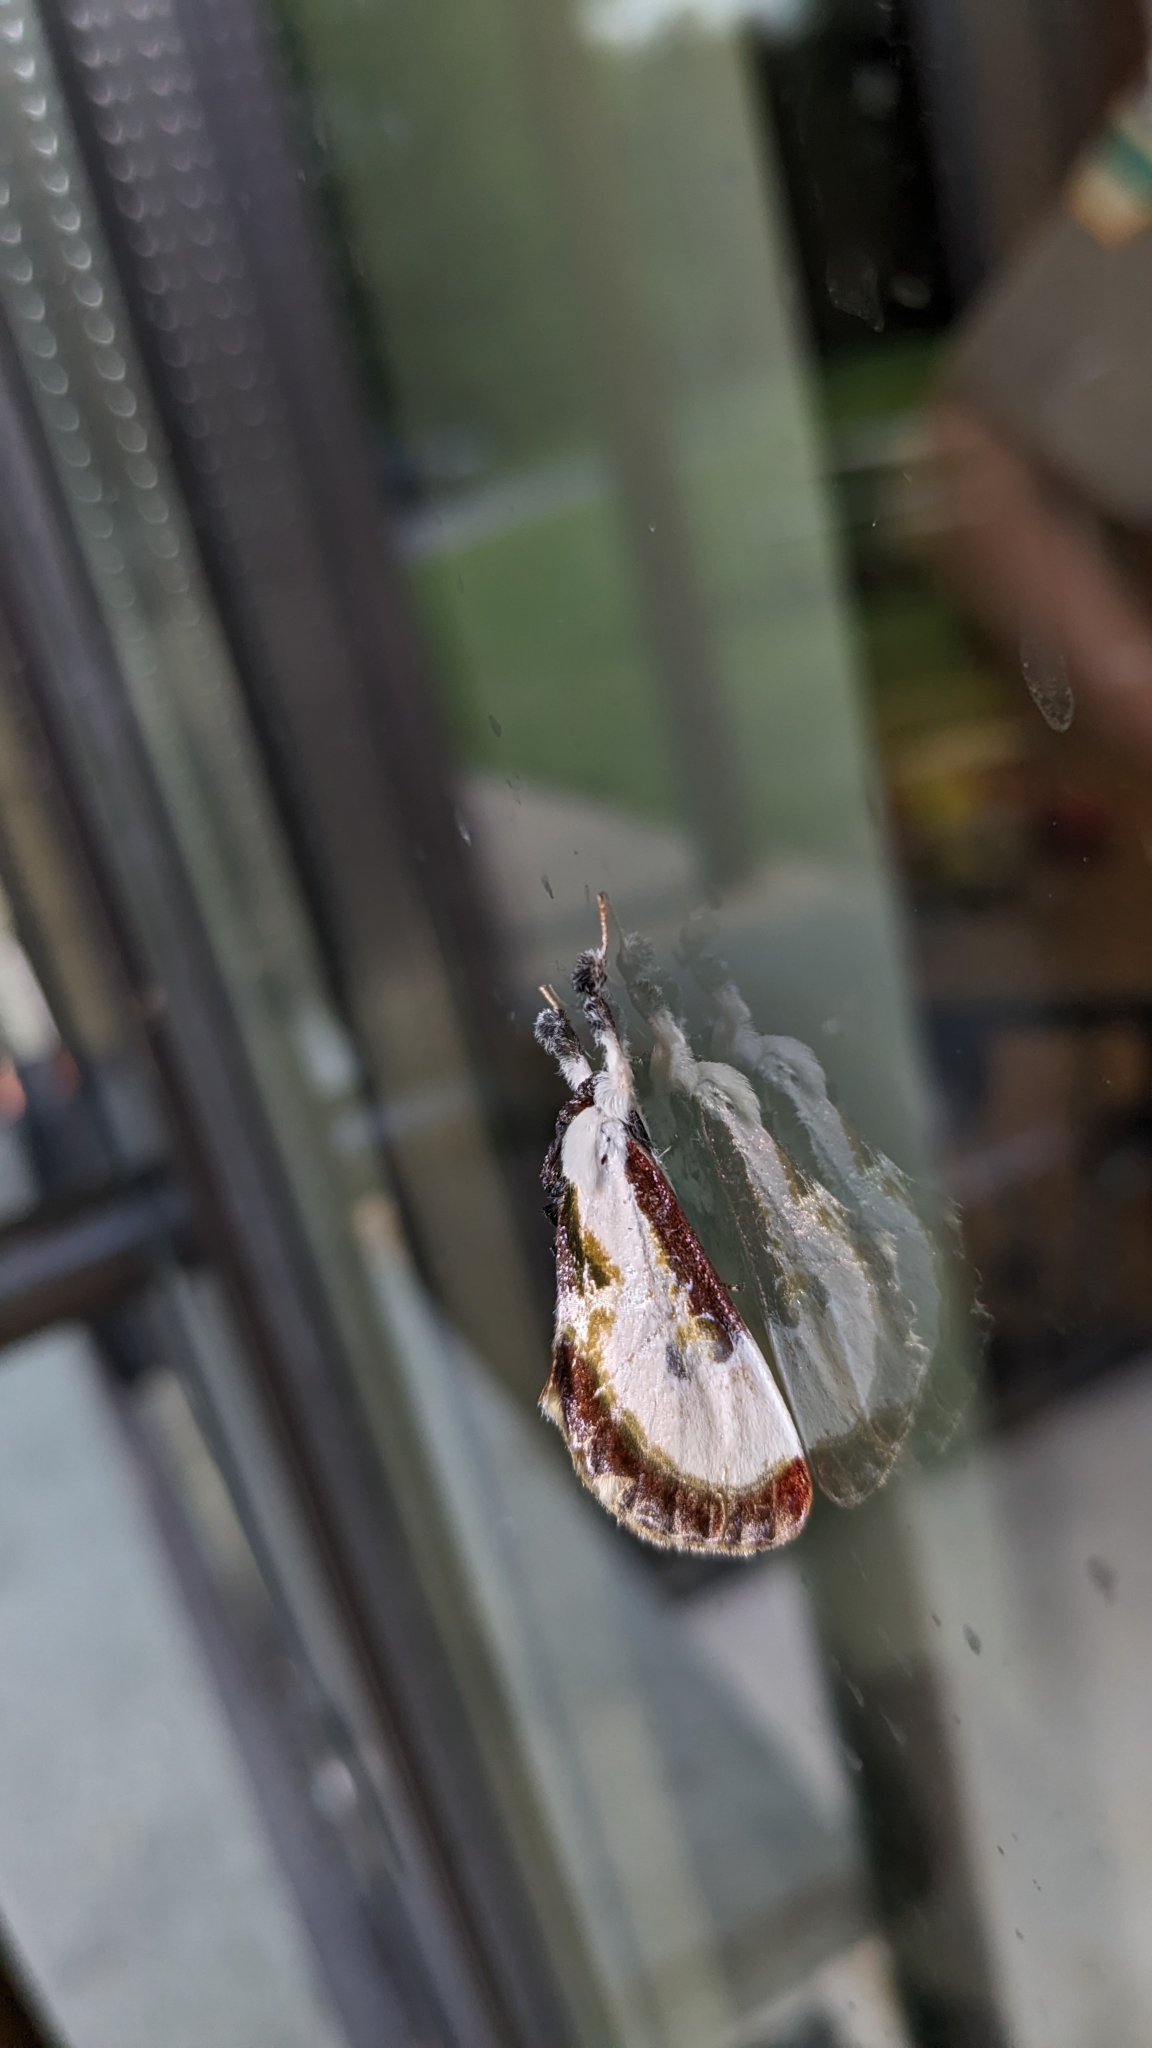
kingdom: Animalia
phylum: Arthropoda
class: Insecta
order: Lepidoptera
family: Noctuidae
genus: Eudryas
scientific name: Eudryas grata
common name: Beautiful wood-nymph
